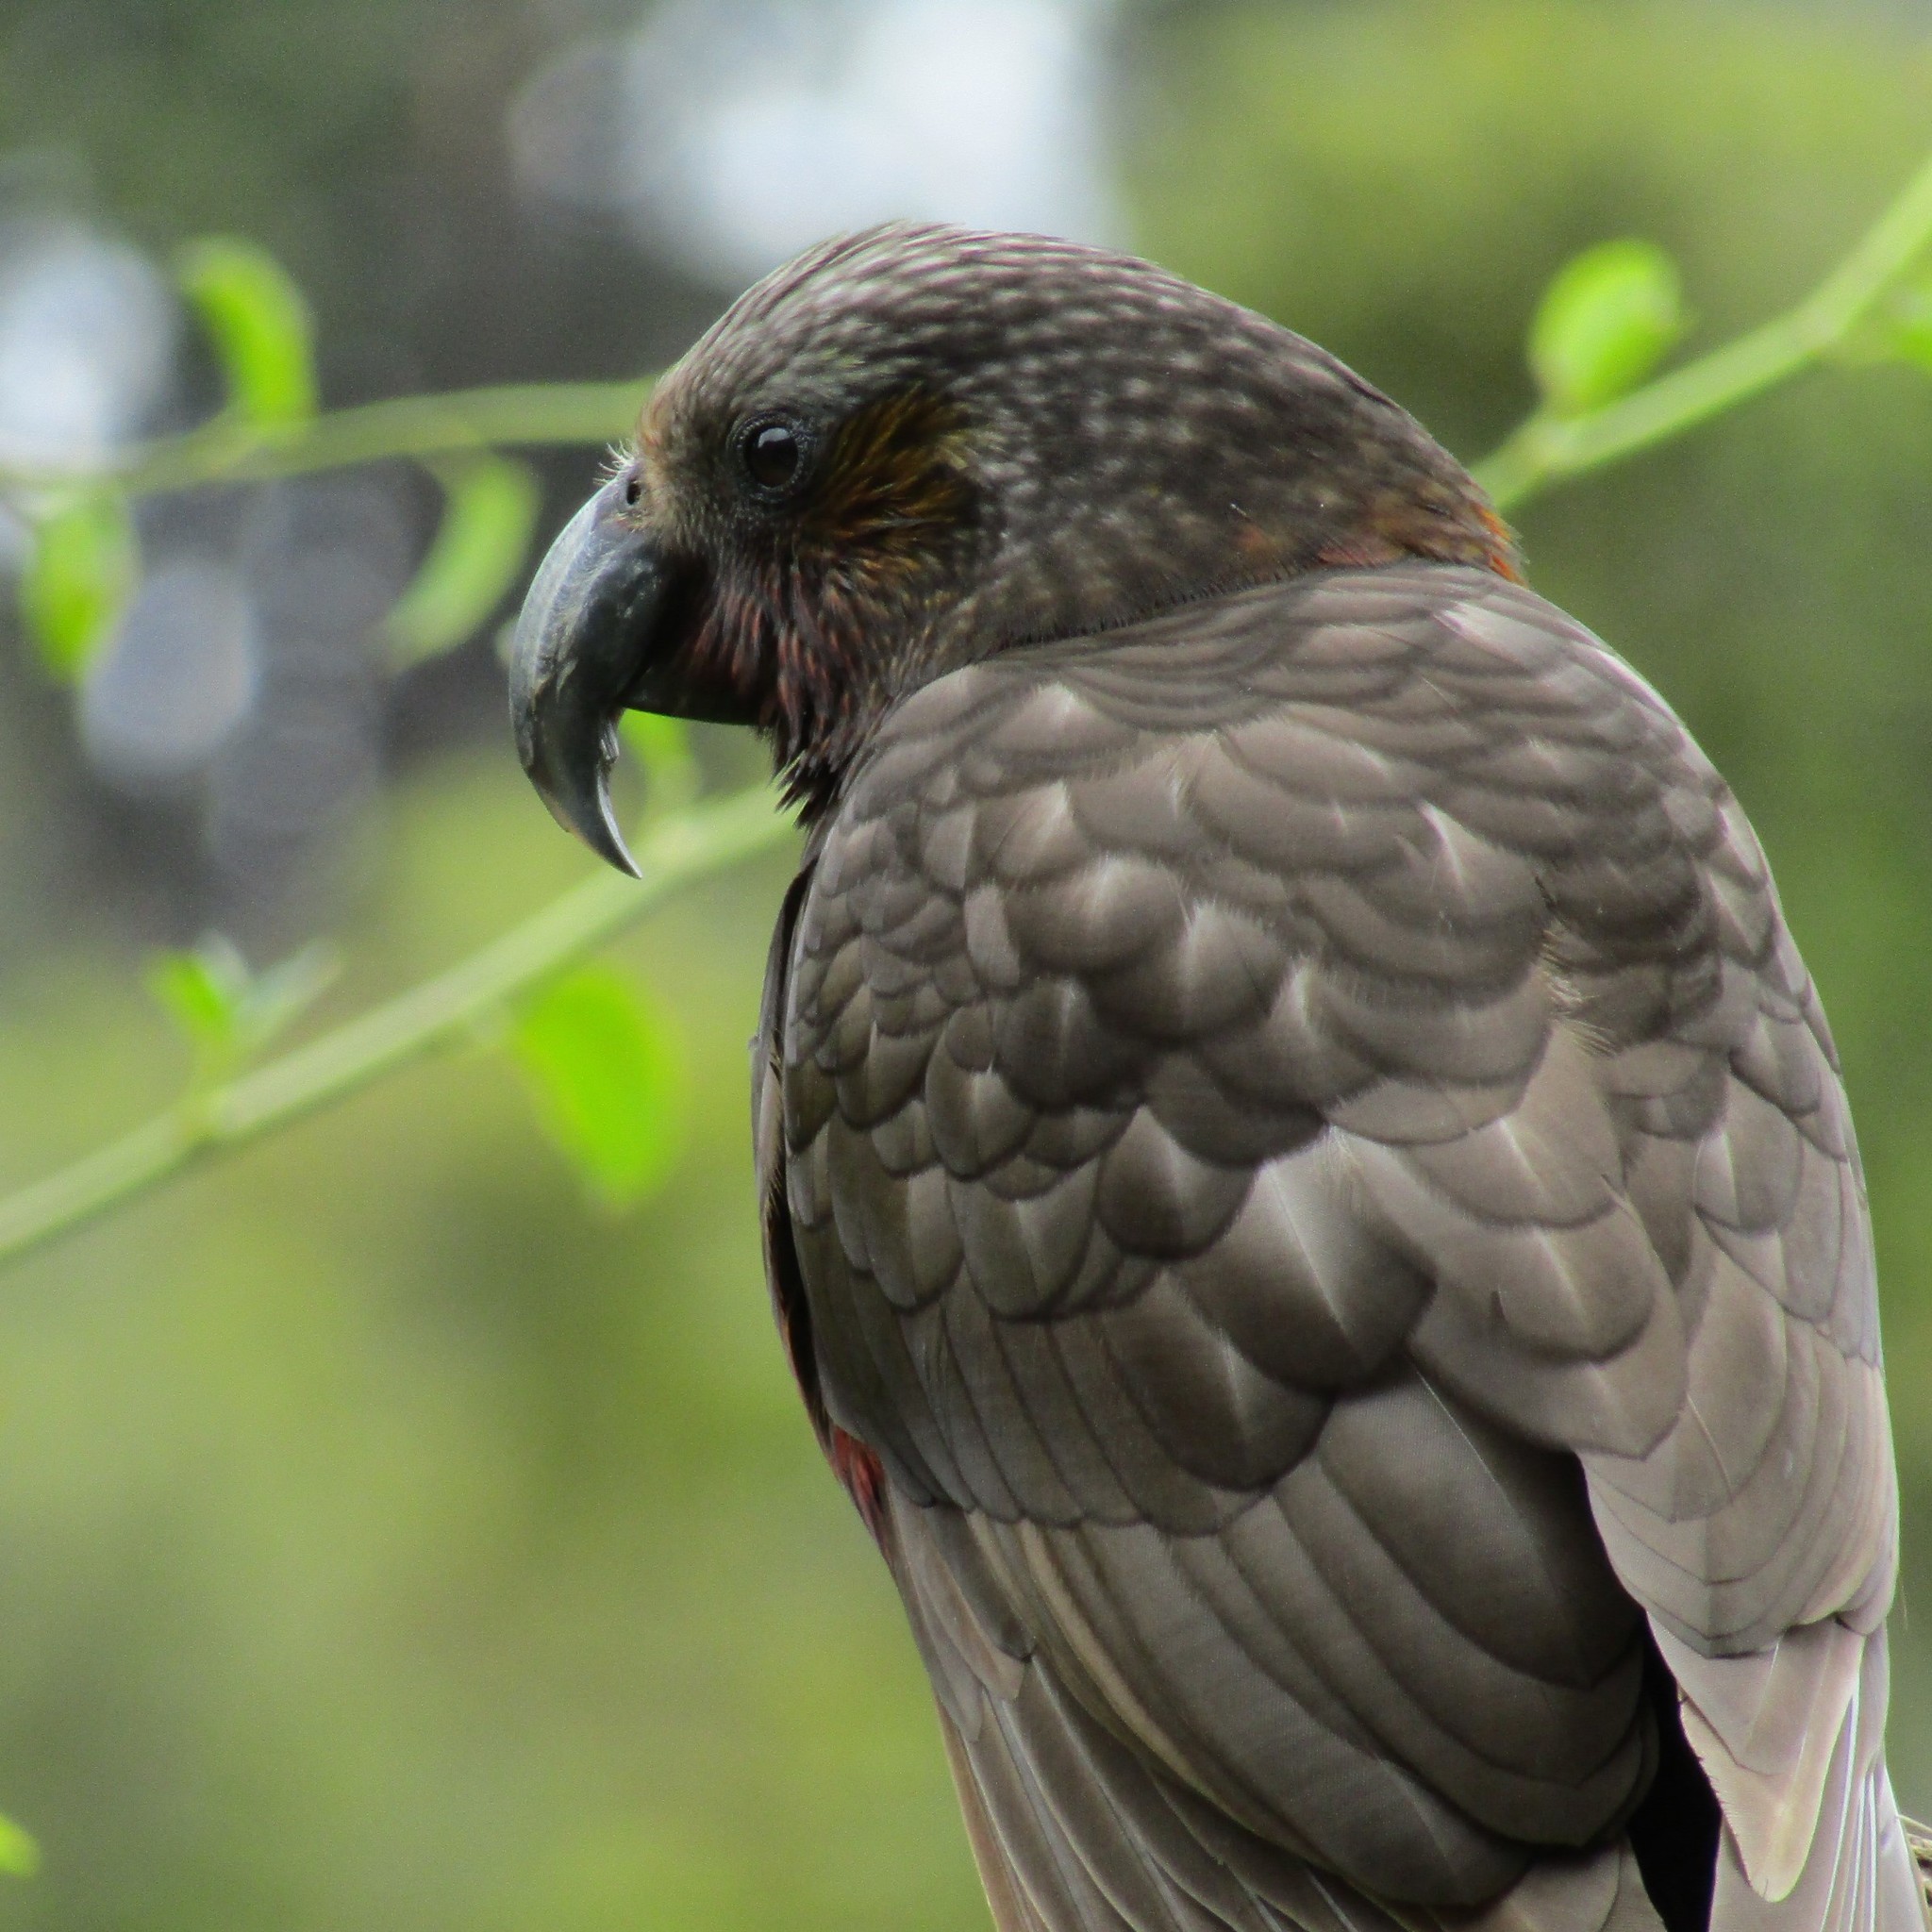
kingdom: Animalia
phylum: Chordata
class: Aves
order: Psittaciformes
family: Psittacidae
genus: Nestor
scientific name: Nestor meridionalis
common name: New zealand kaka
